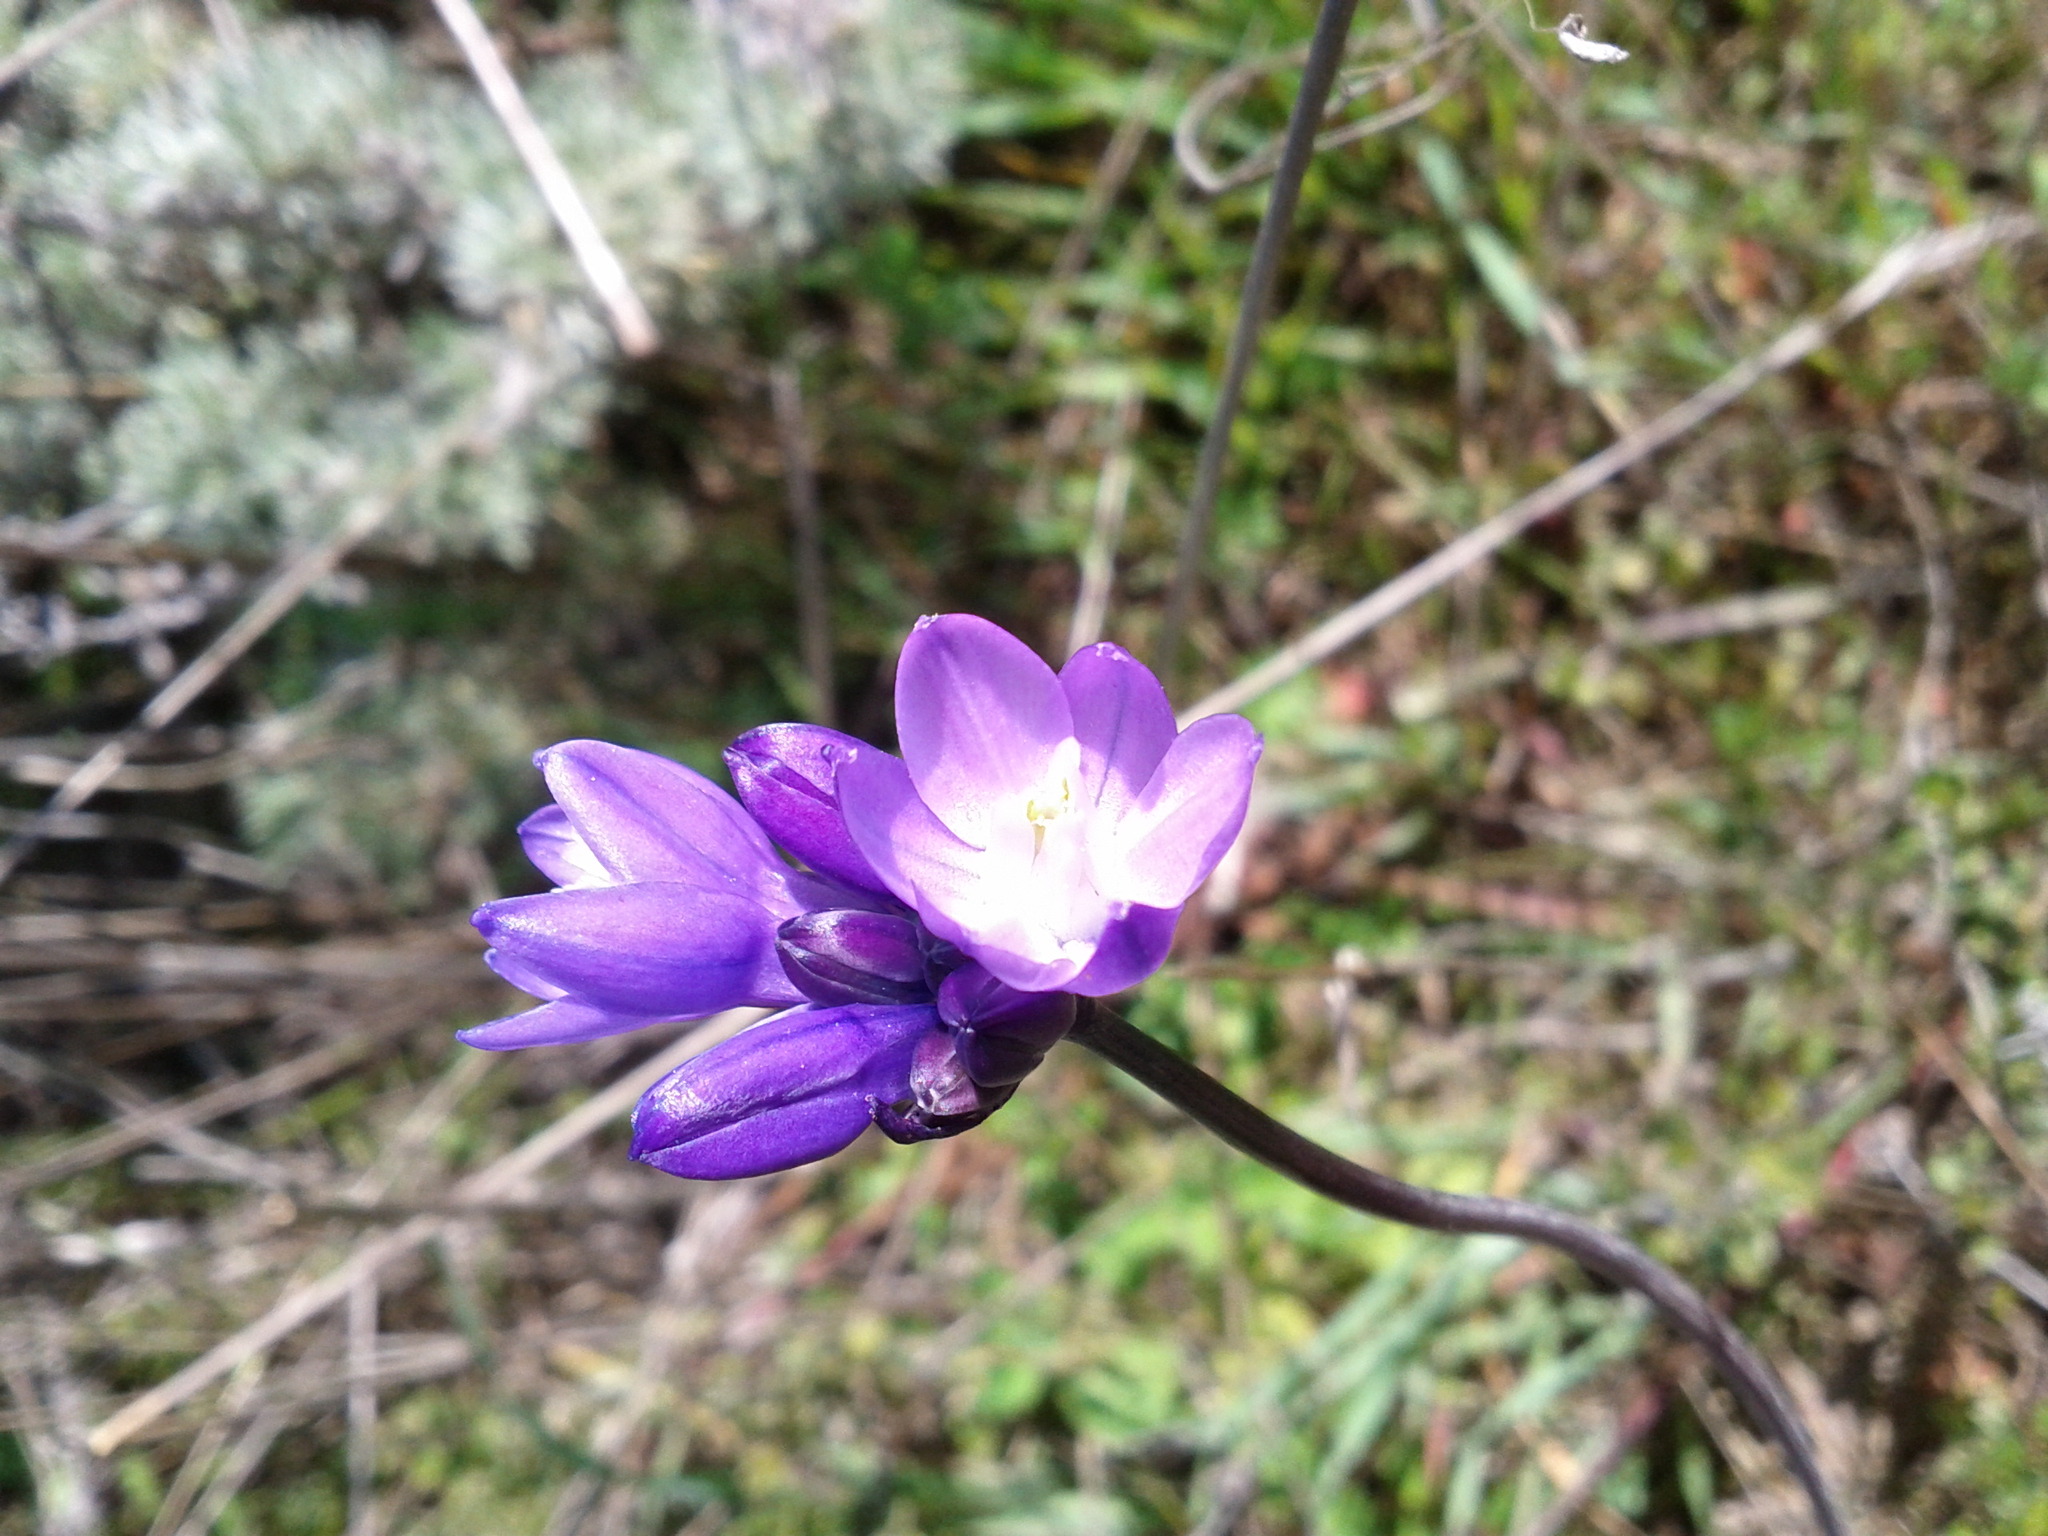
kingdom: Plantae
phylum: Tracheophyta
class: Liliopsida
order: Asparagales
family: Asparagaceae
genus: Dipterostemon
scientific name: Dipterostemon capitatus
